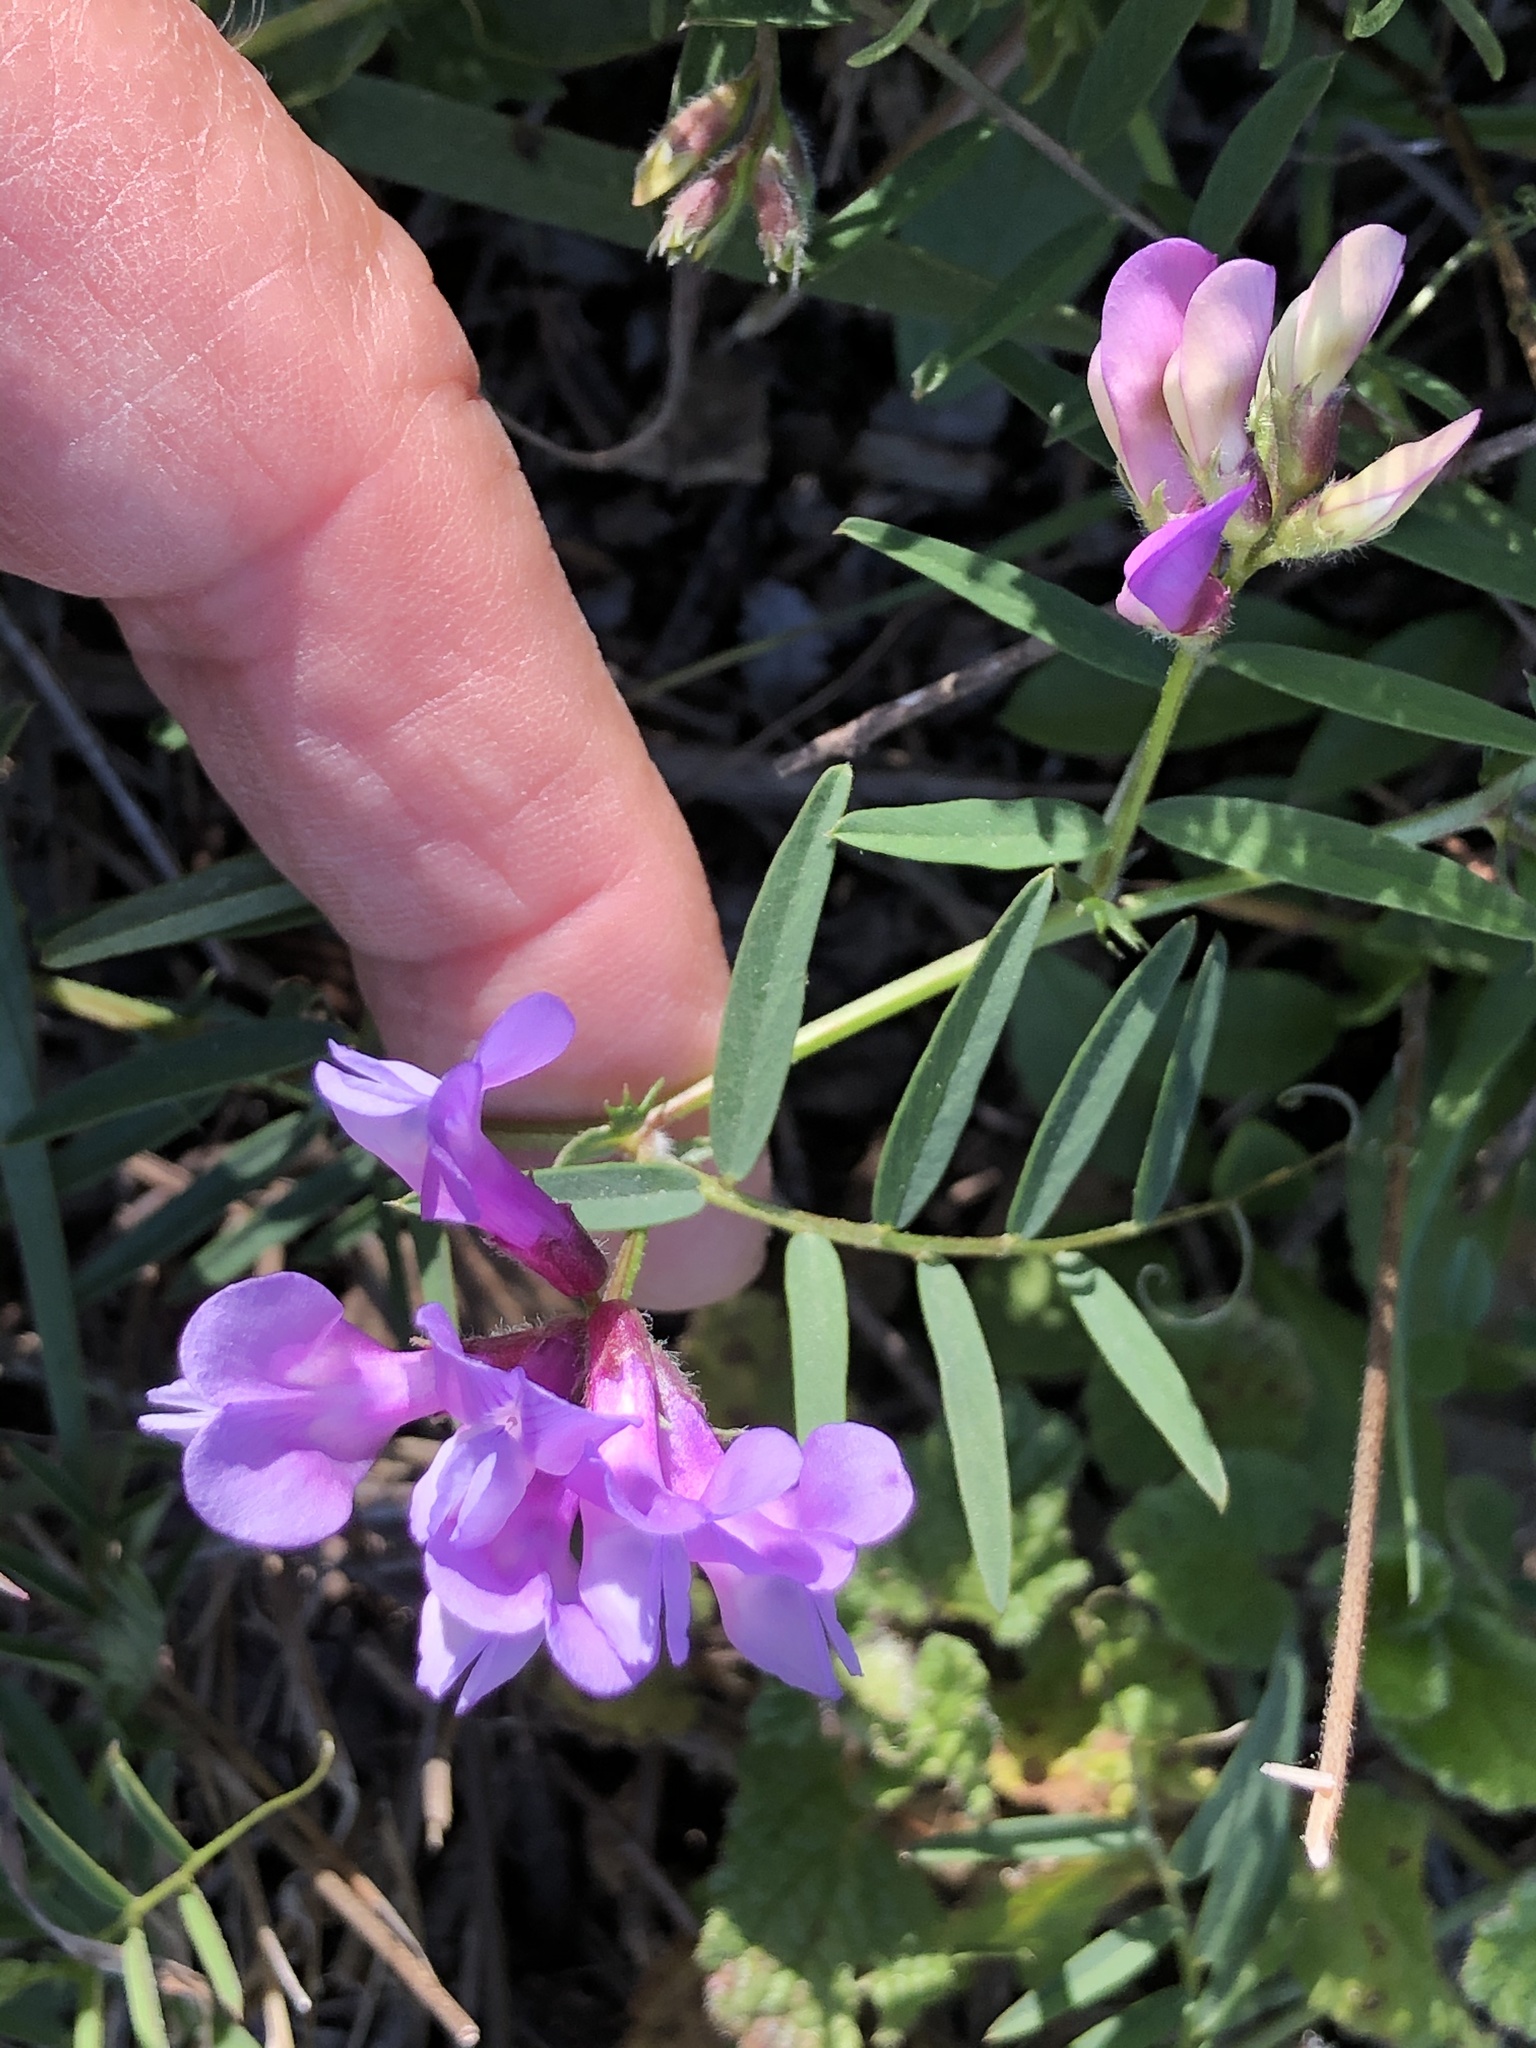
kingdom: Plantae
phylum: Tracheophyta
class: Magnoliopsida
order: Fabales
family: Fabaceae
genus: Vicia
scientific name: Vicia americana
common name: American vetch
